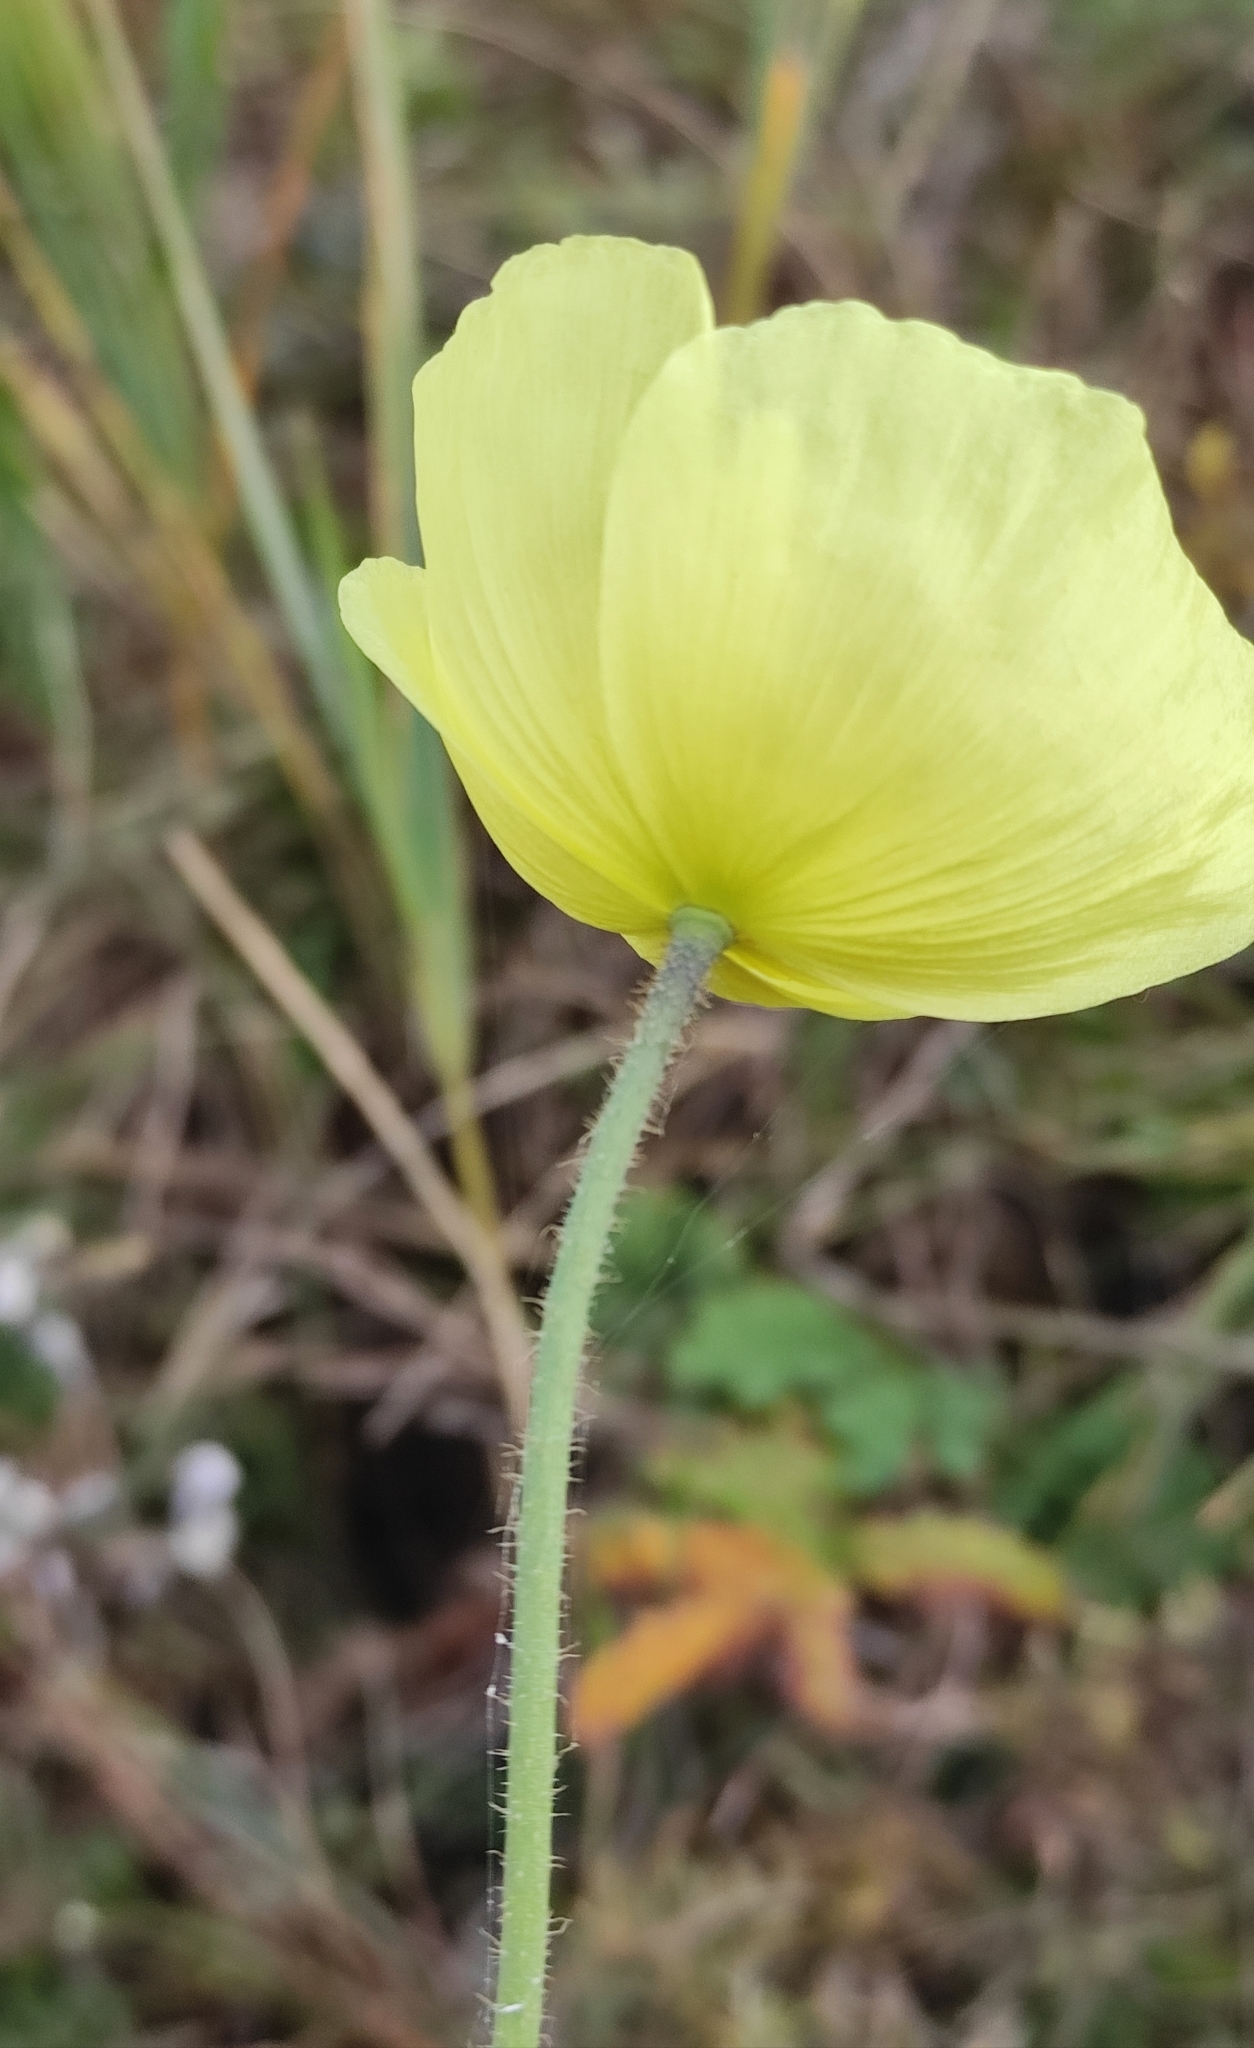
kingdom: Plantae
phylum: Tracheophyta
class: Magnoliopsida
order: Ranunculales
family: Papaveraceae
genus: Papaver
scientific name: Papaver nudicaule
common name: Arctic poppy
